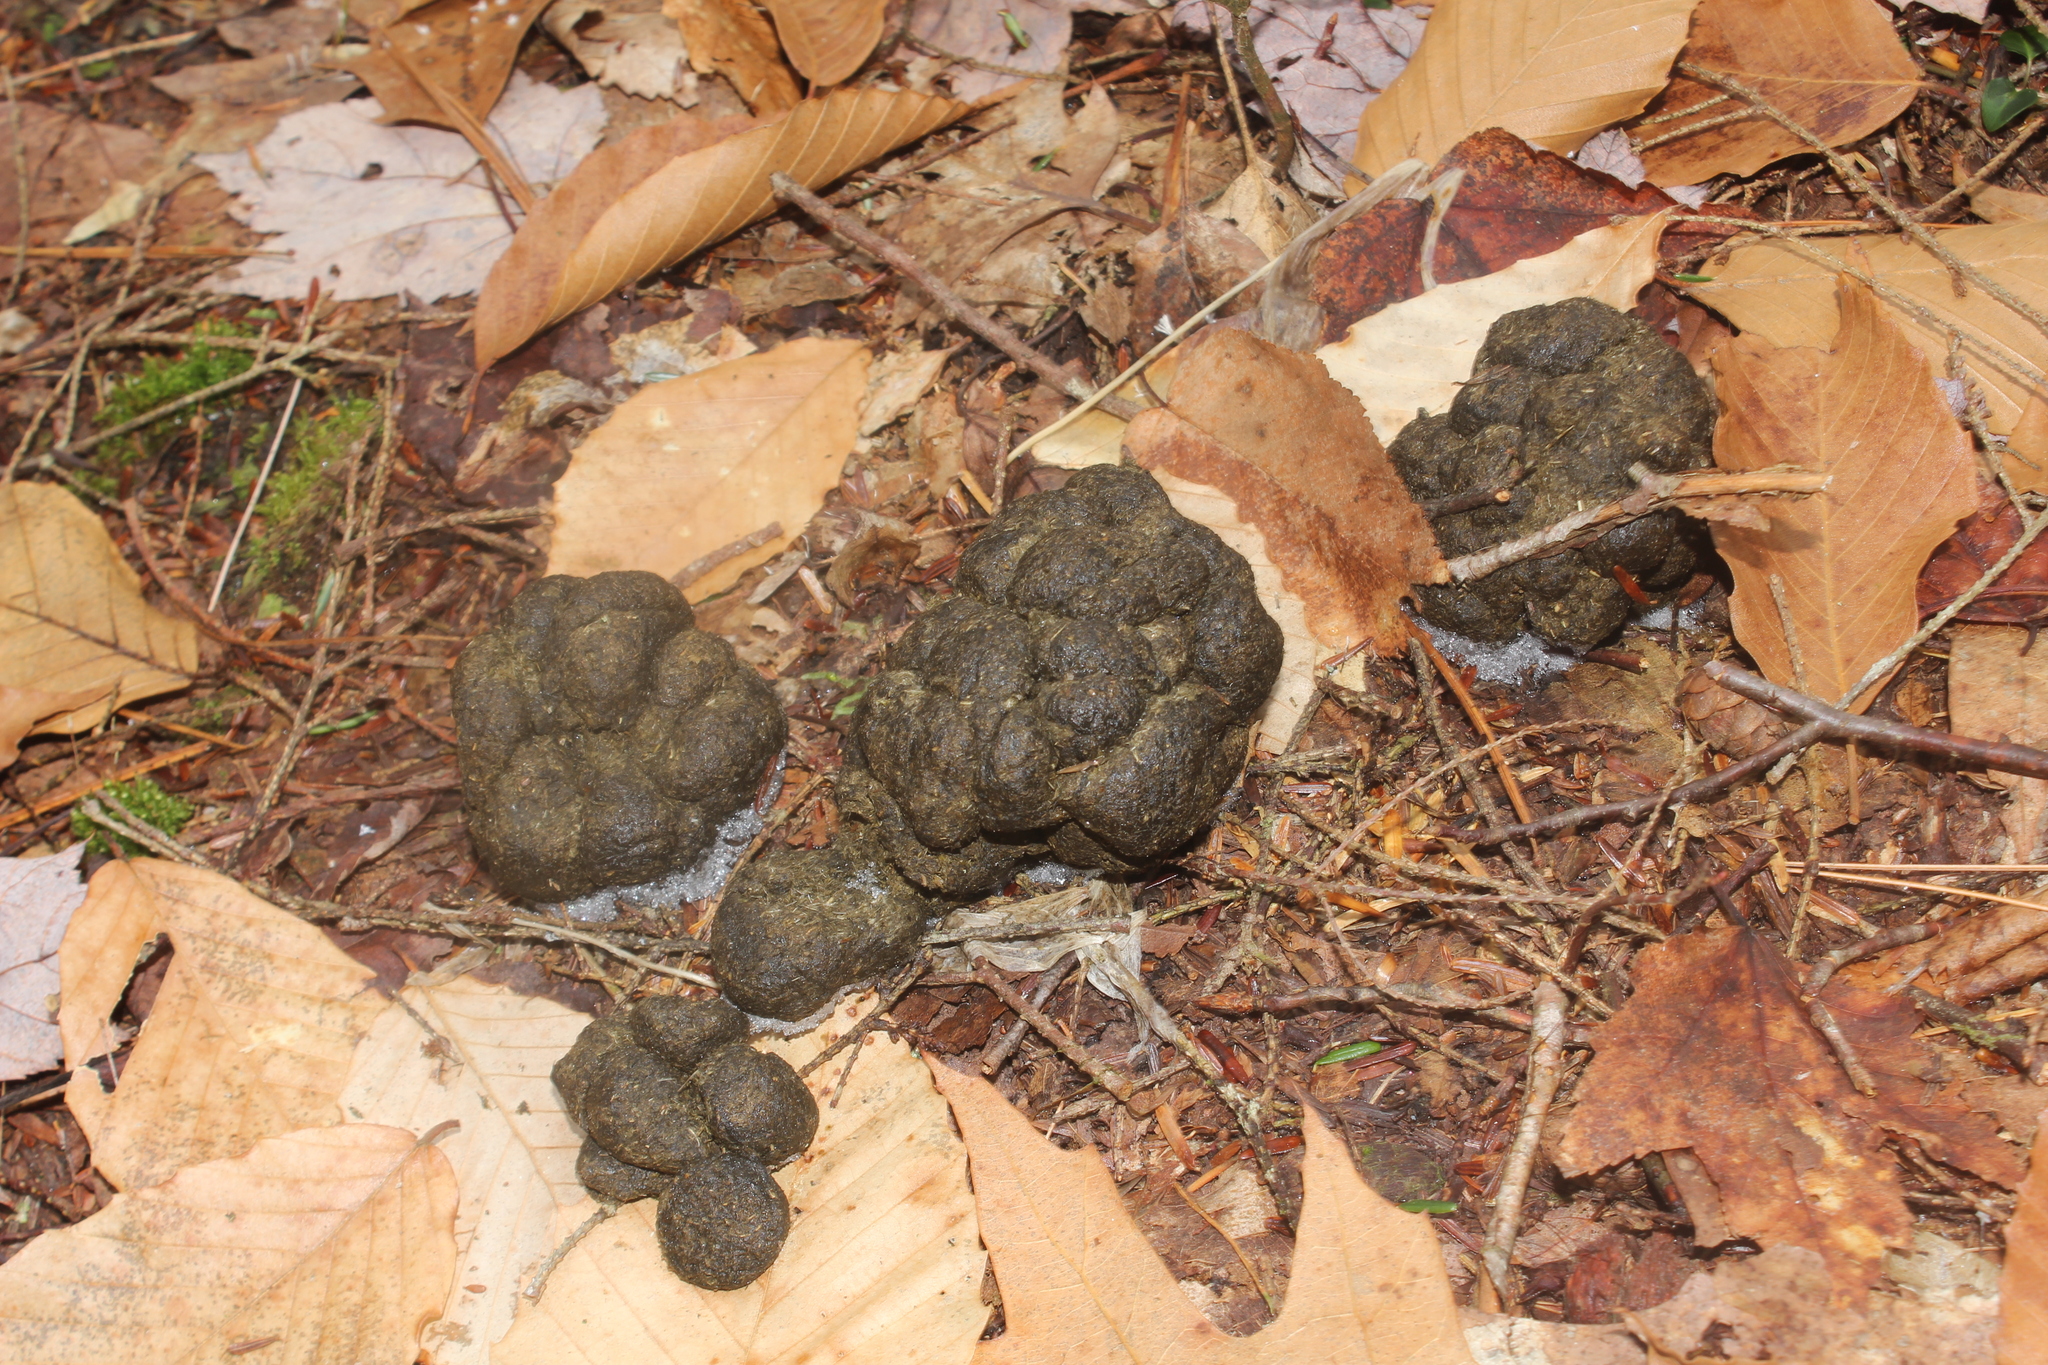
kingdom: Animalia
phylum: Chordata
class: Mammalia
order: Artiodactyla
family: Cervidae
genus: Odocoileus
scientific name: Odocoileus virginianus
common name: White-tailed deer
